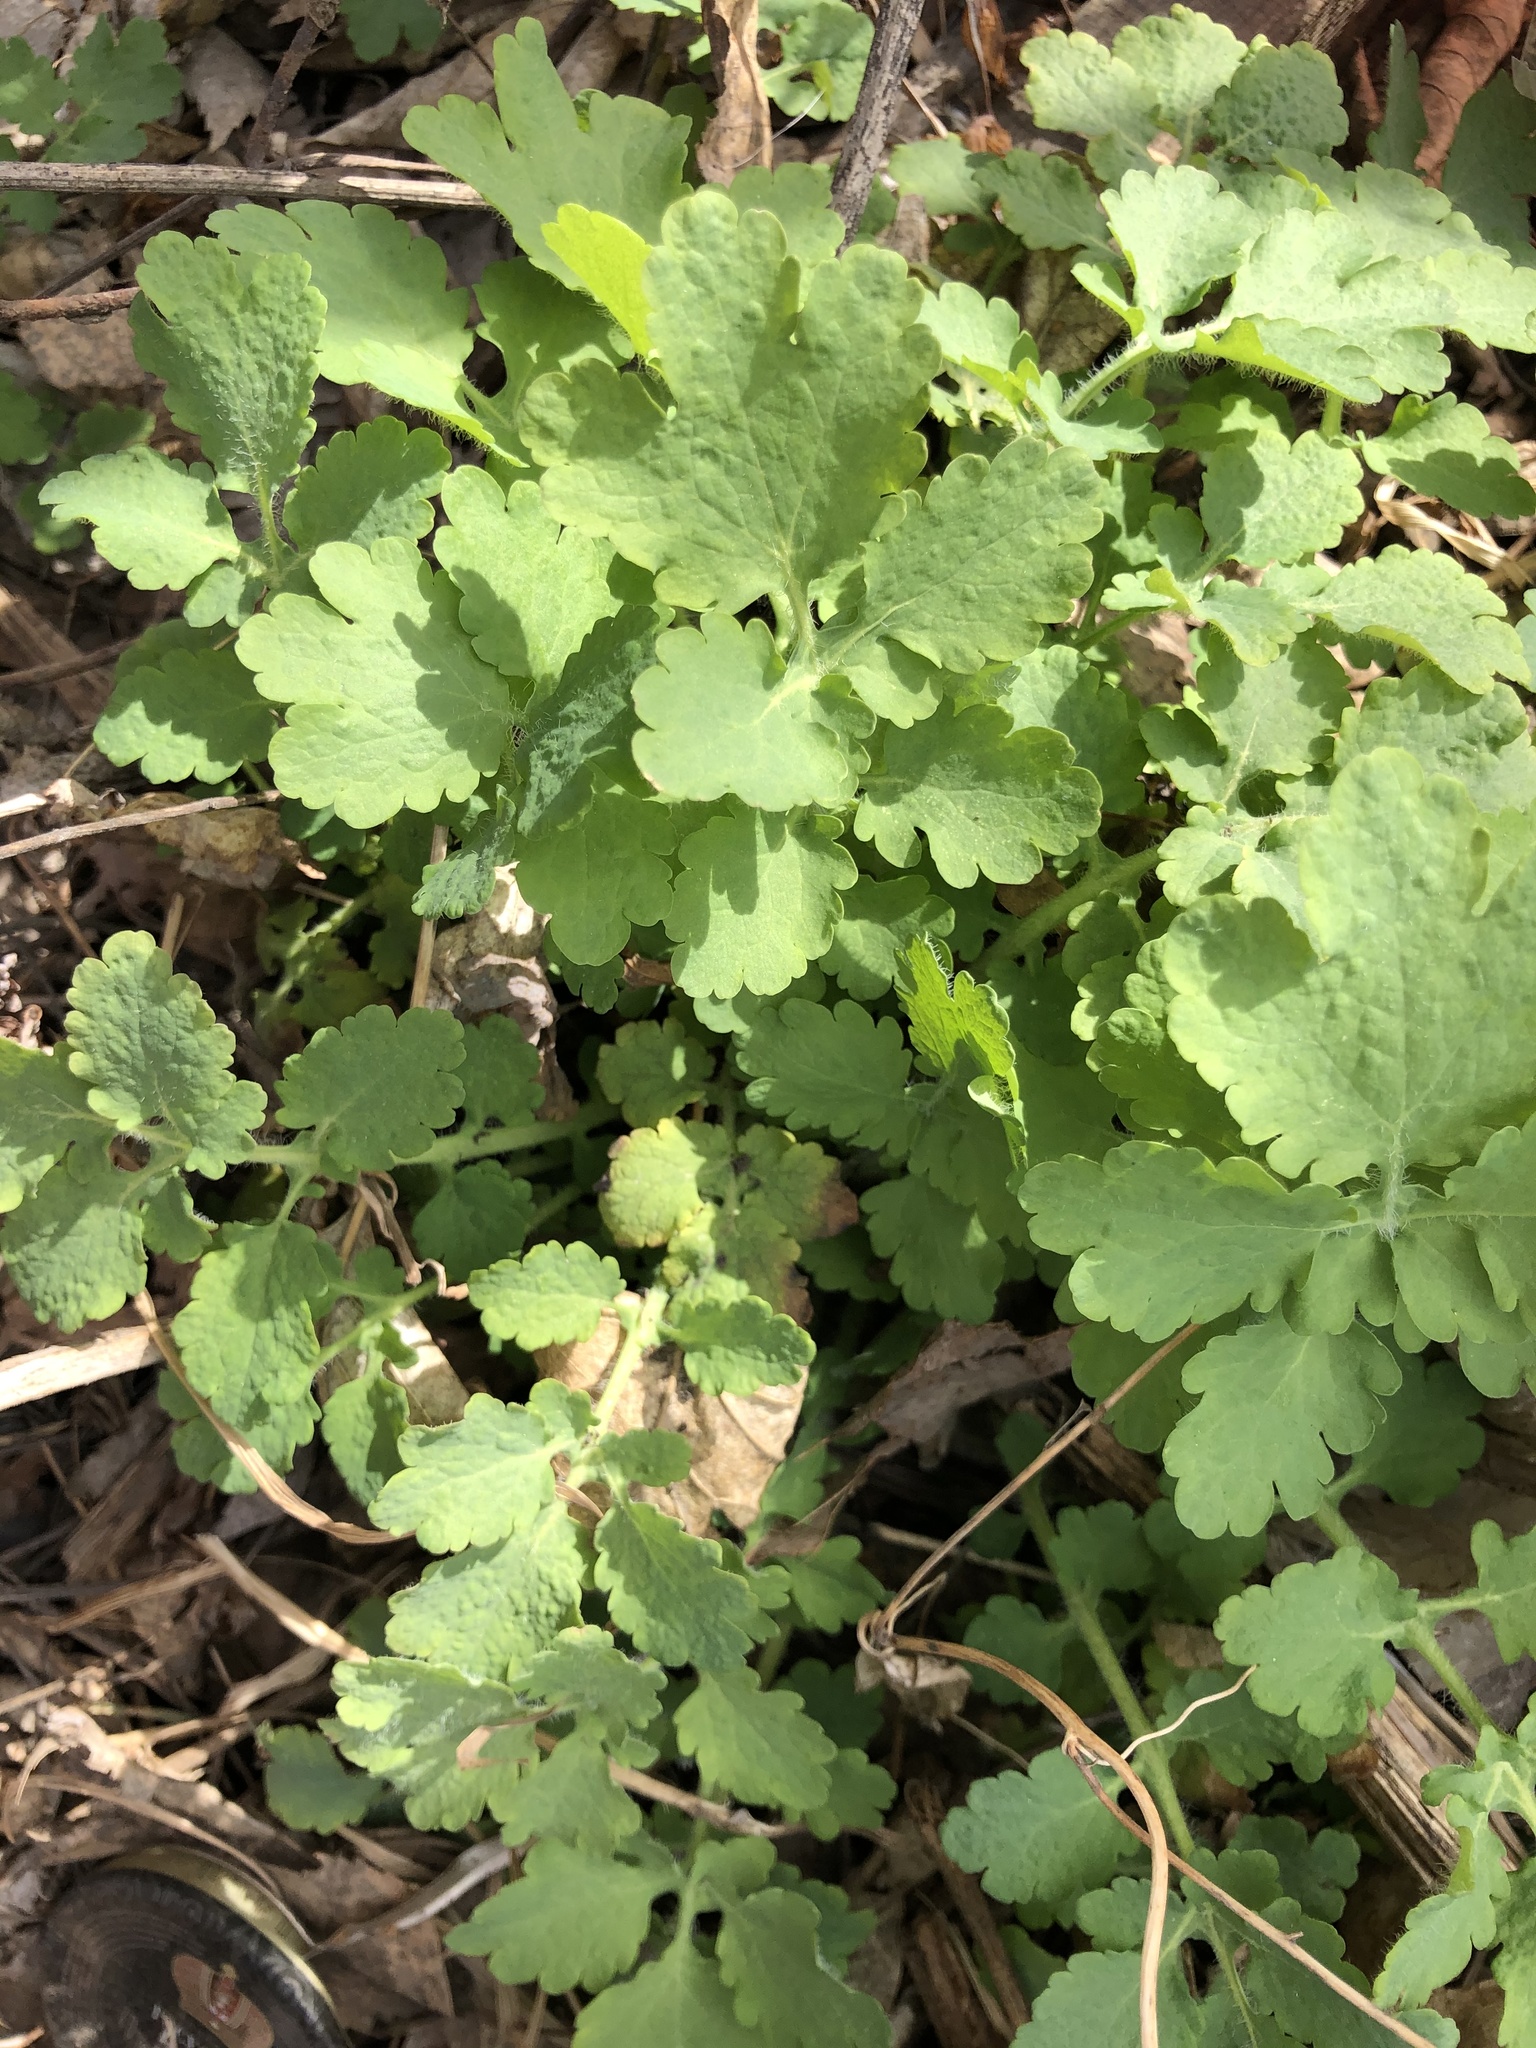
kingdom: Plantae
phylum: Tracheophyta
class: Magnoliopsida
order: Ranunculales
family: Papaveraceae
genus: Chelidonium
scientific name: Chelidonium majus
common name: Greater celandine
